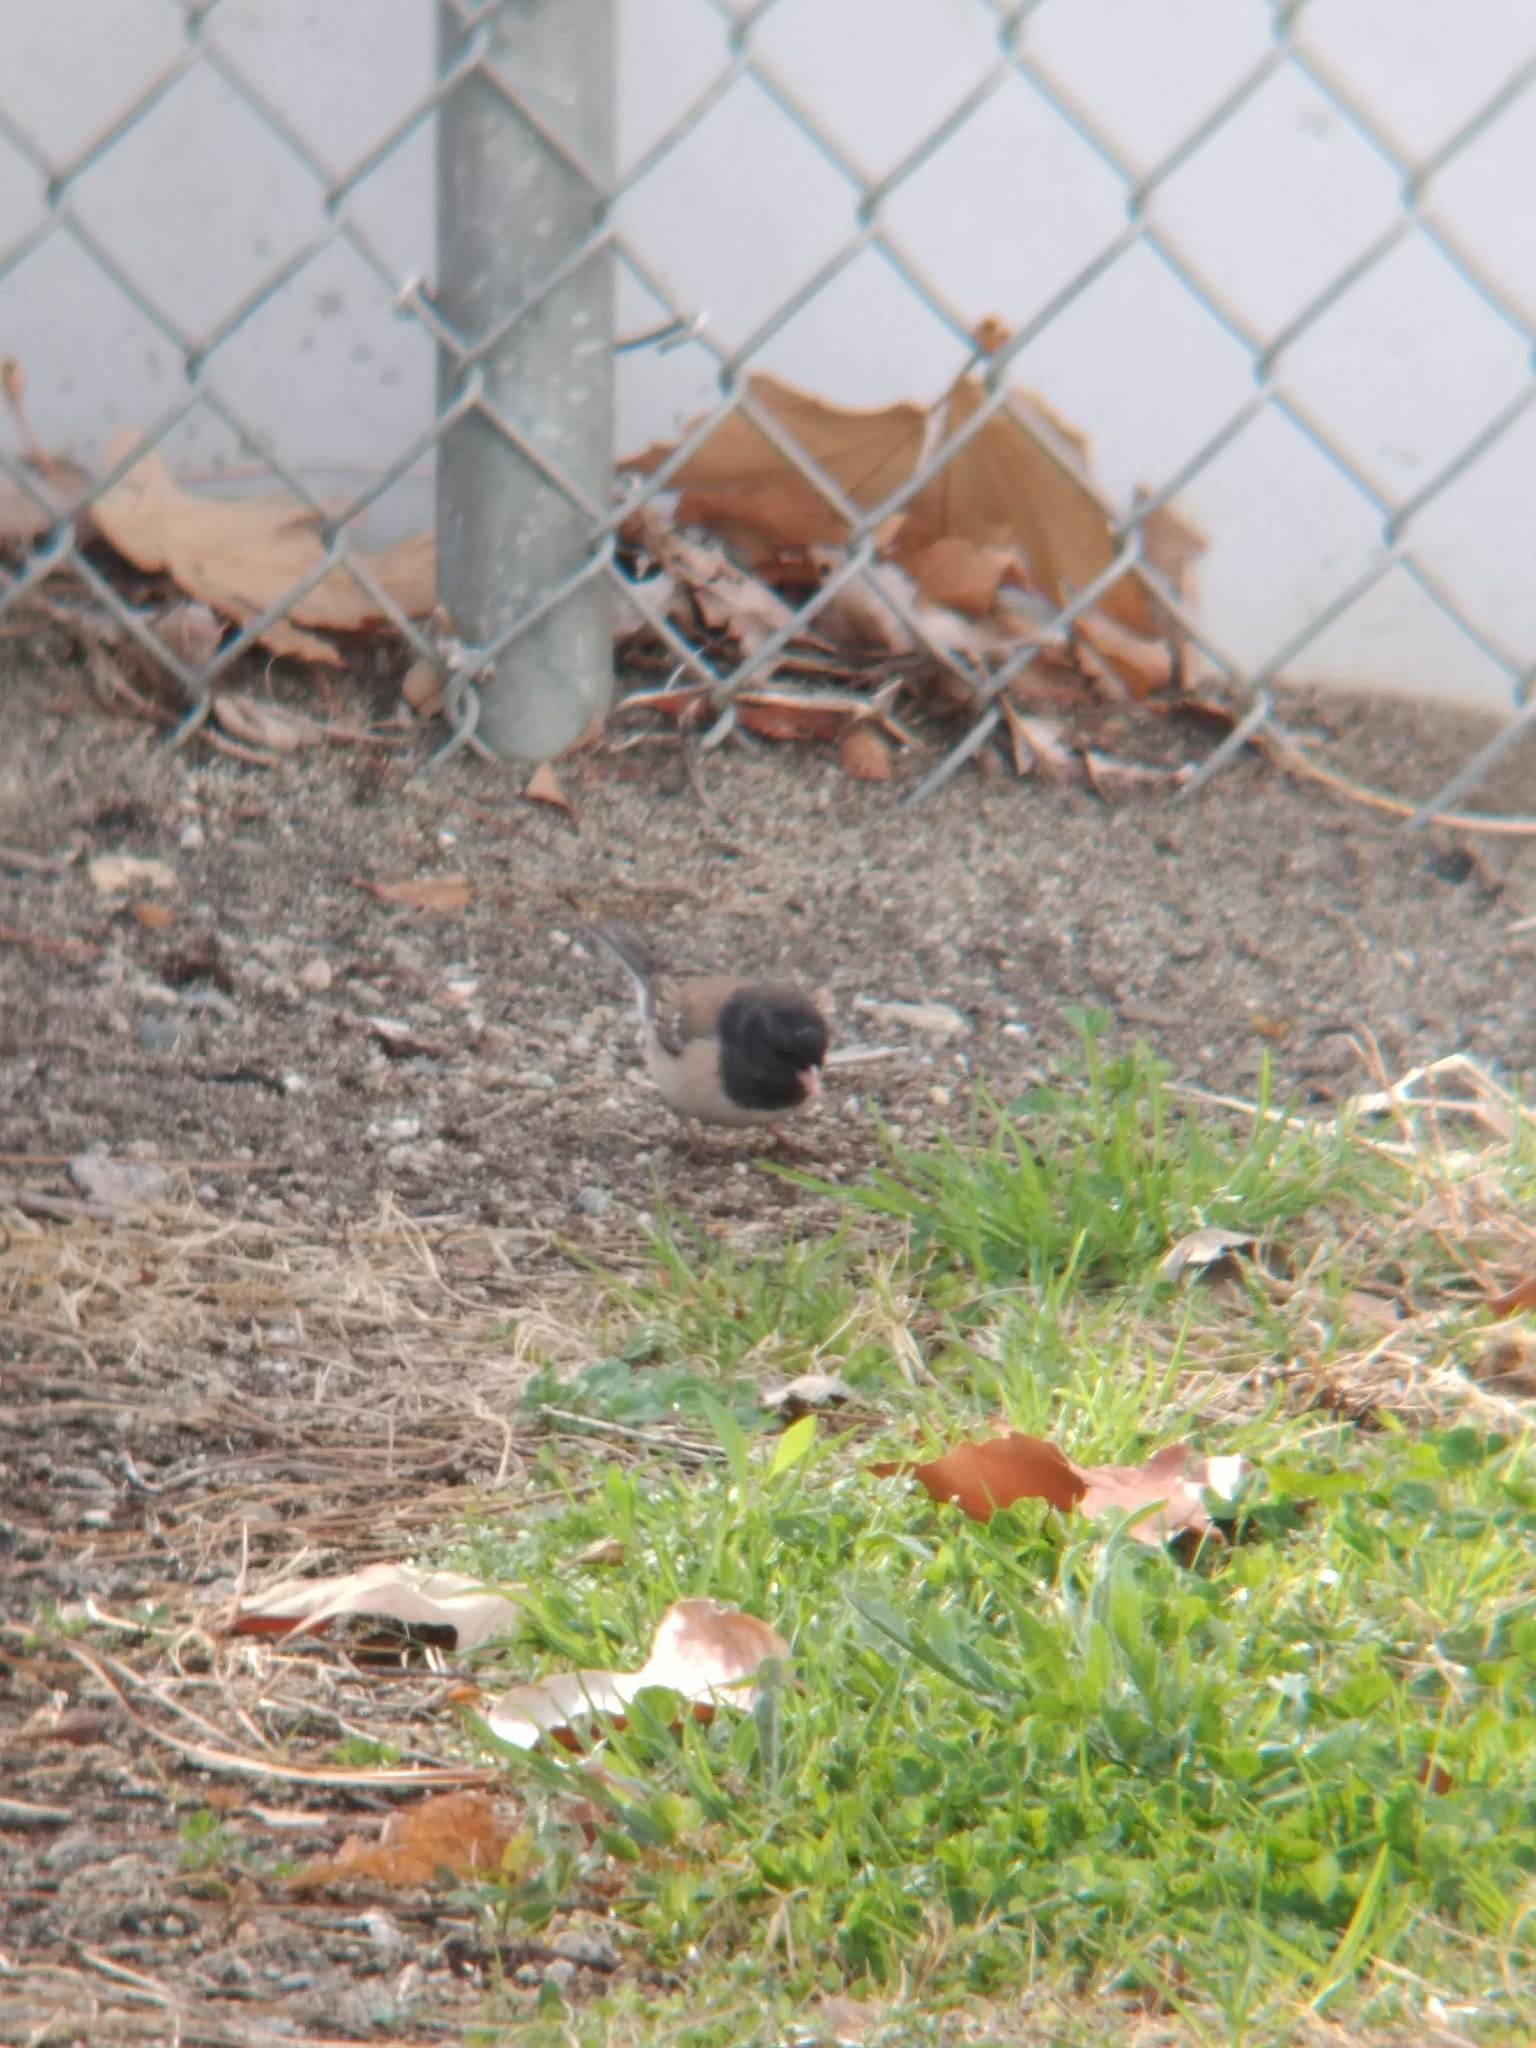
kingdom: Animalia
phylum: Chordata
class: Aves
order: Passeriformes
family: Passerellidae
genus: Junco
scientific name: Junco hyemalis
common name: Dark-eyed junco
